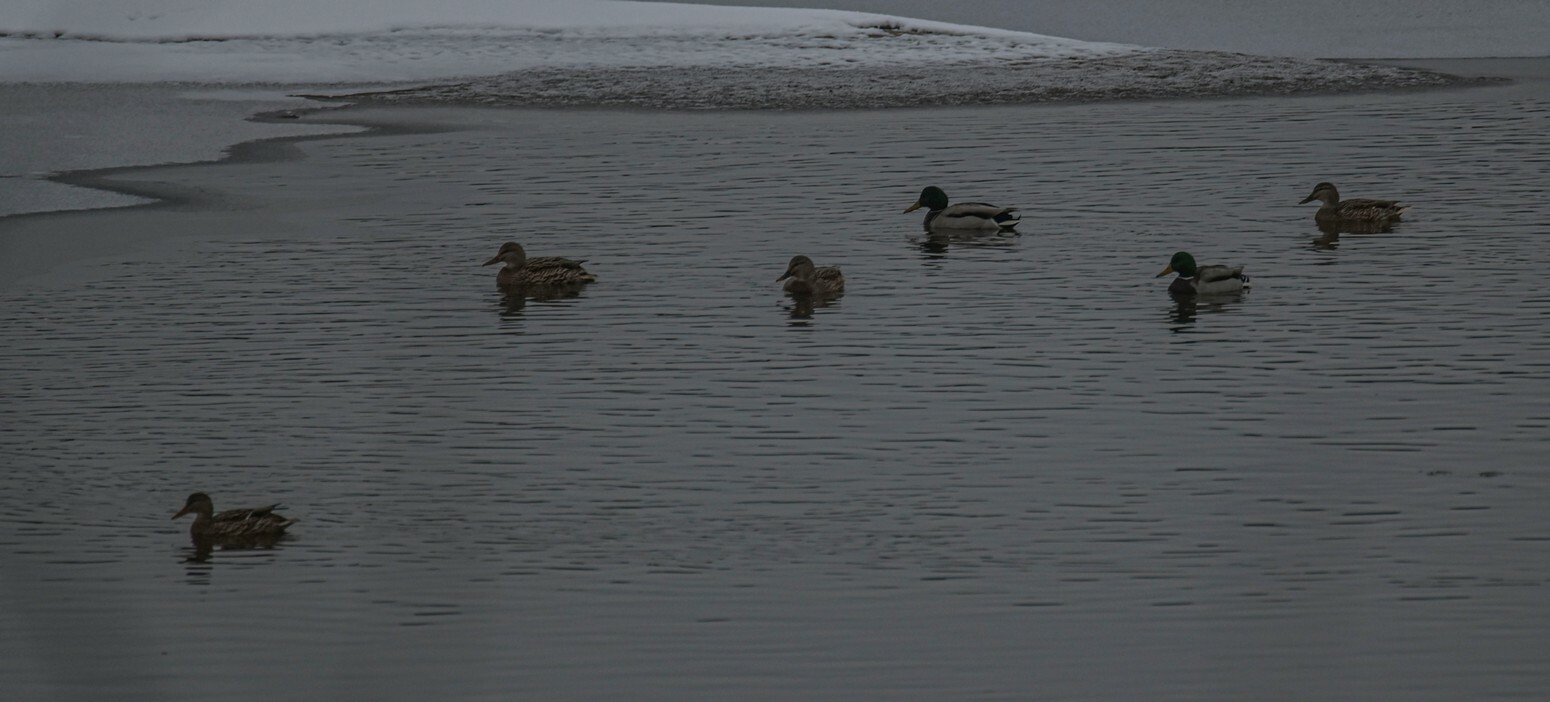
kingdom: Animalia
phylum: Chordata
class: Aves
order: Anseriformes
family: Anatidae
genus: Anas
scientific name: Anas platyrhynchos
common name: Mallard
